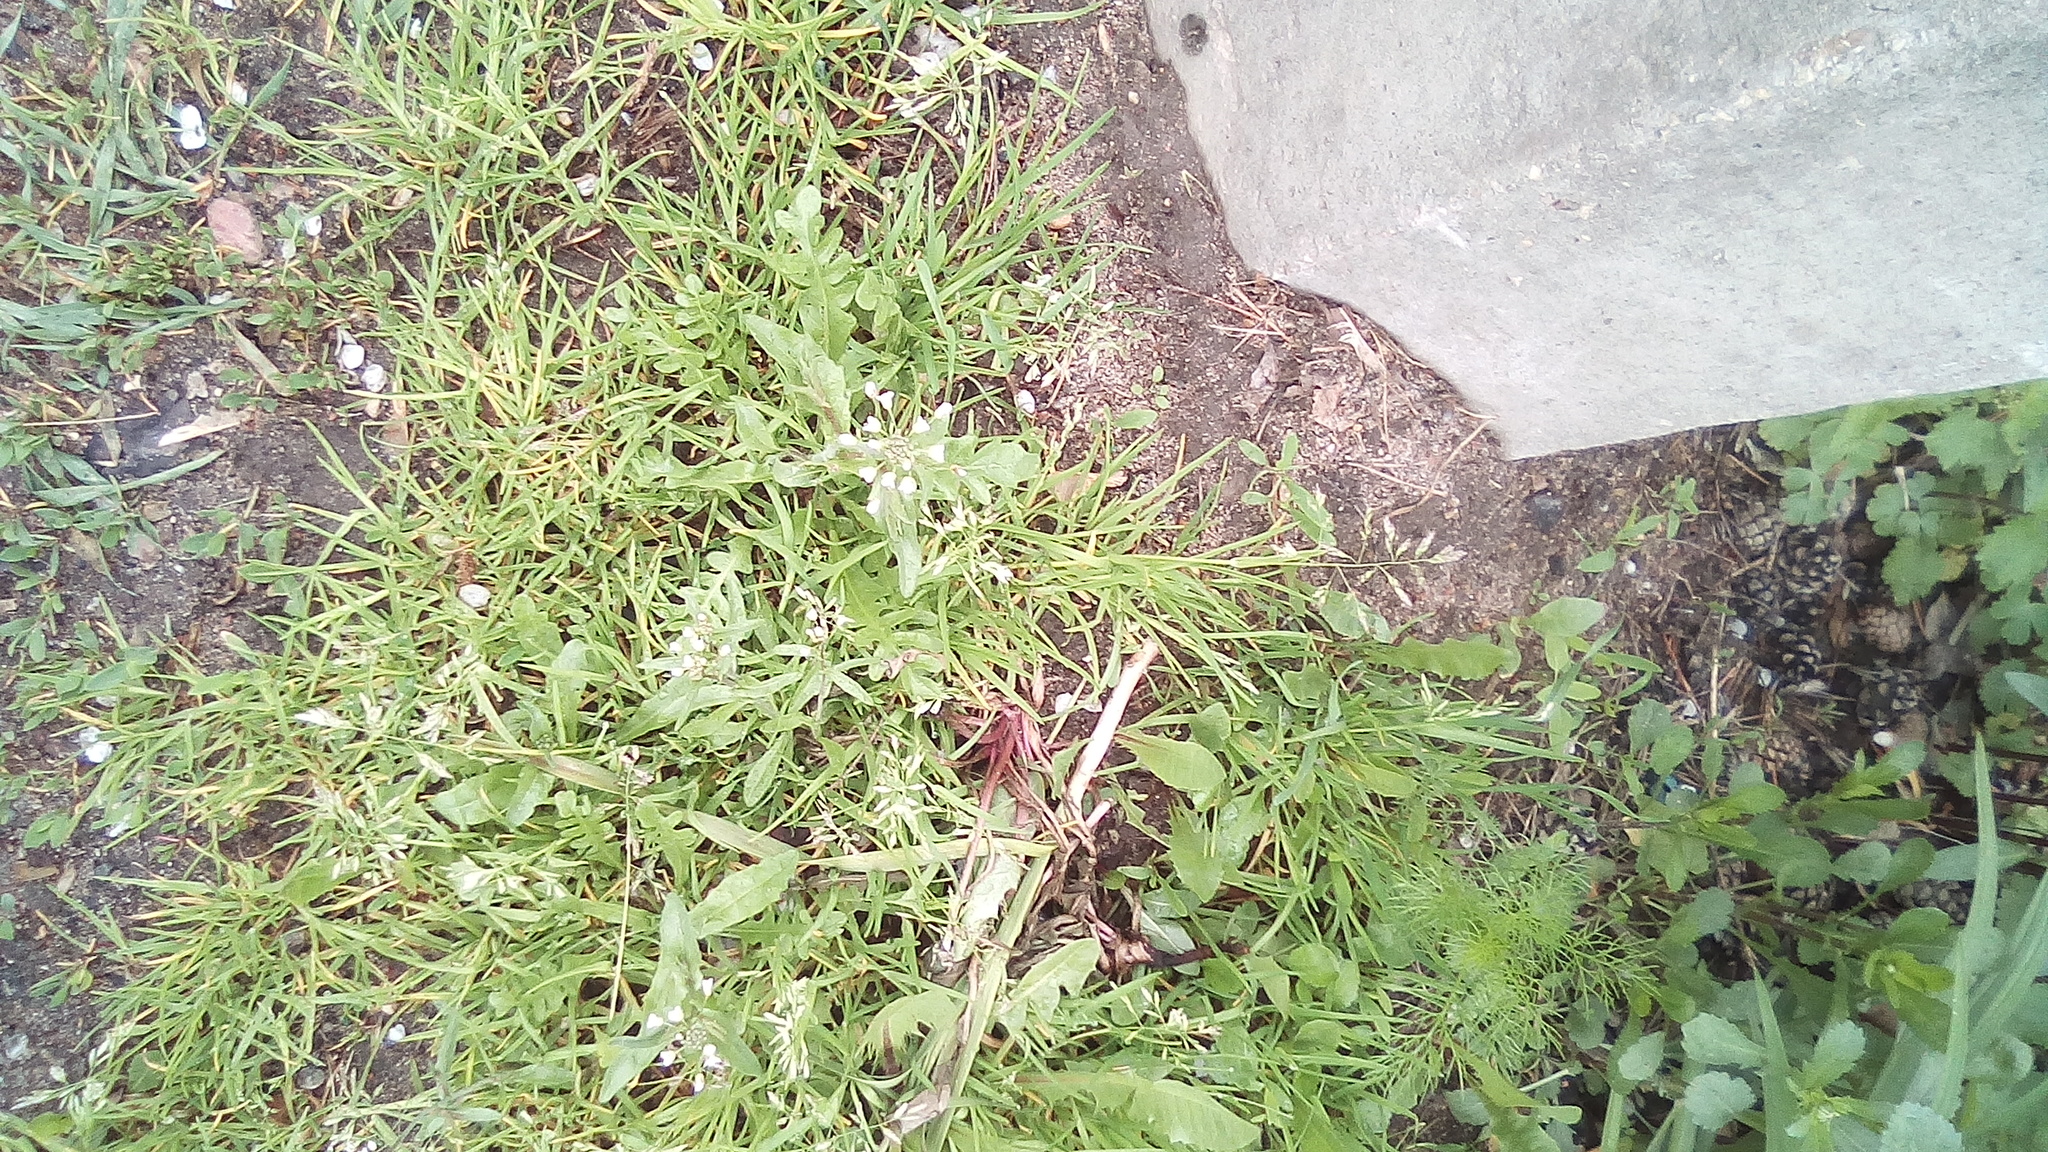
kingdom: Plantae
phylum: Tracheophyta
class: Magnoliopsida
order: Brassicales
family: Brassicaceae
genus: Capsella
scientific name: Capsella bursa-pastoris
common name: Shepherd's purse
